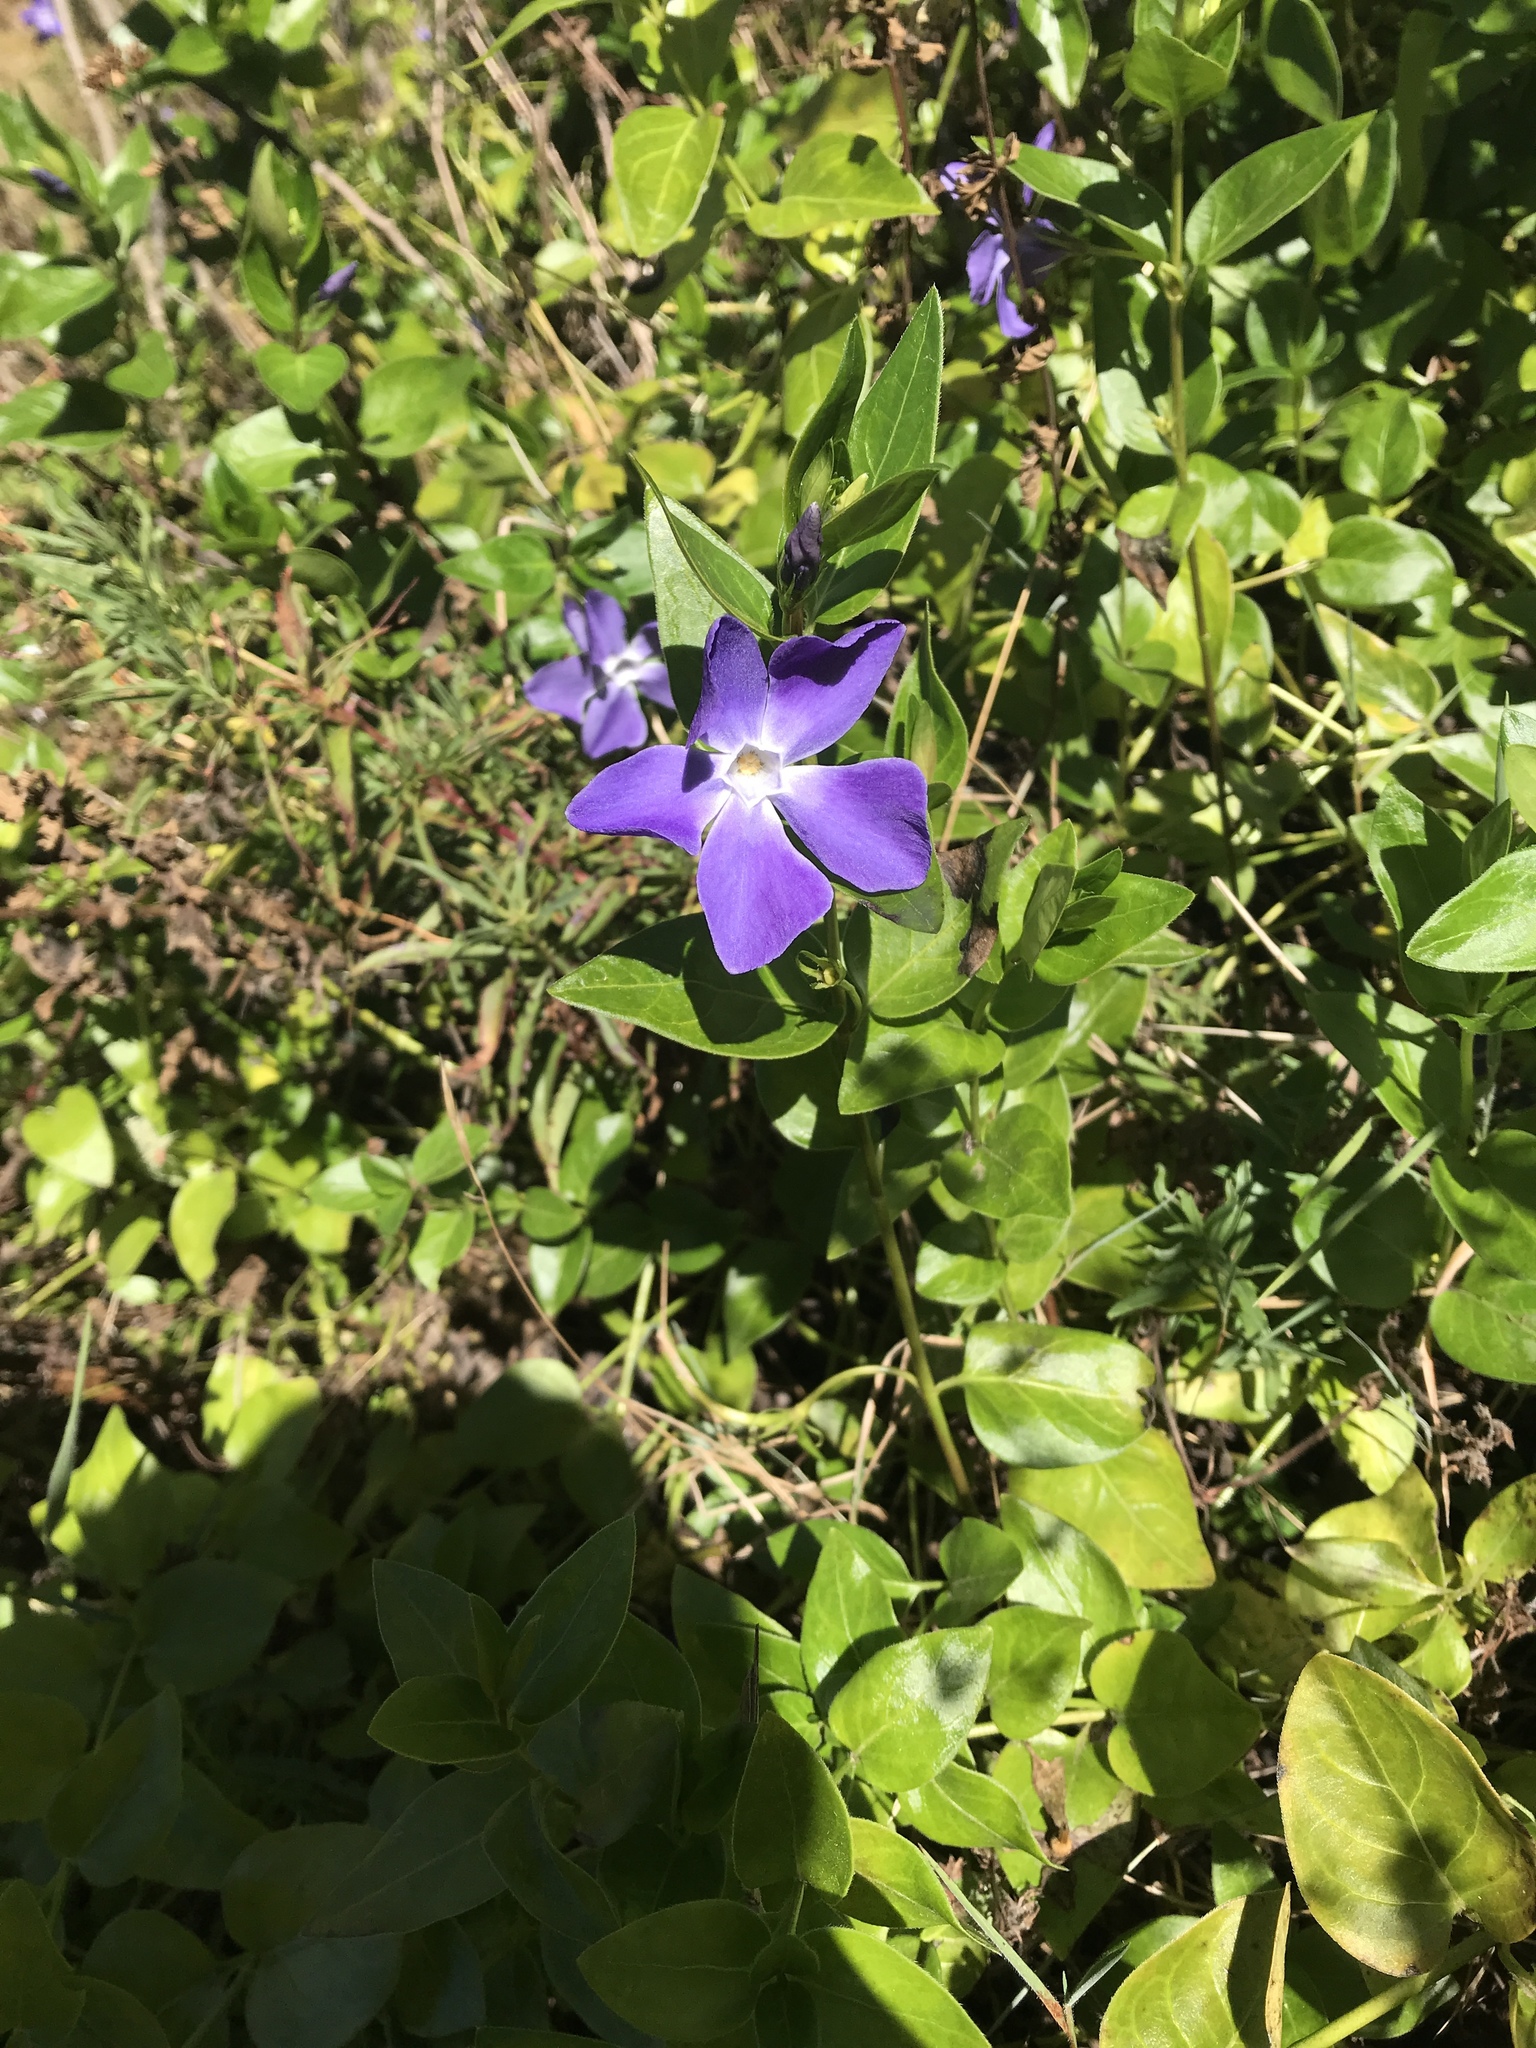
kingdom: Plantae
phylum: Tracheophyta
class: Magnoliopsida
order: Gentianales
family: Apocynaceae
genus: Vinca
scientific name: Vinca major
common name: Greater periwinkle
